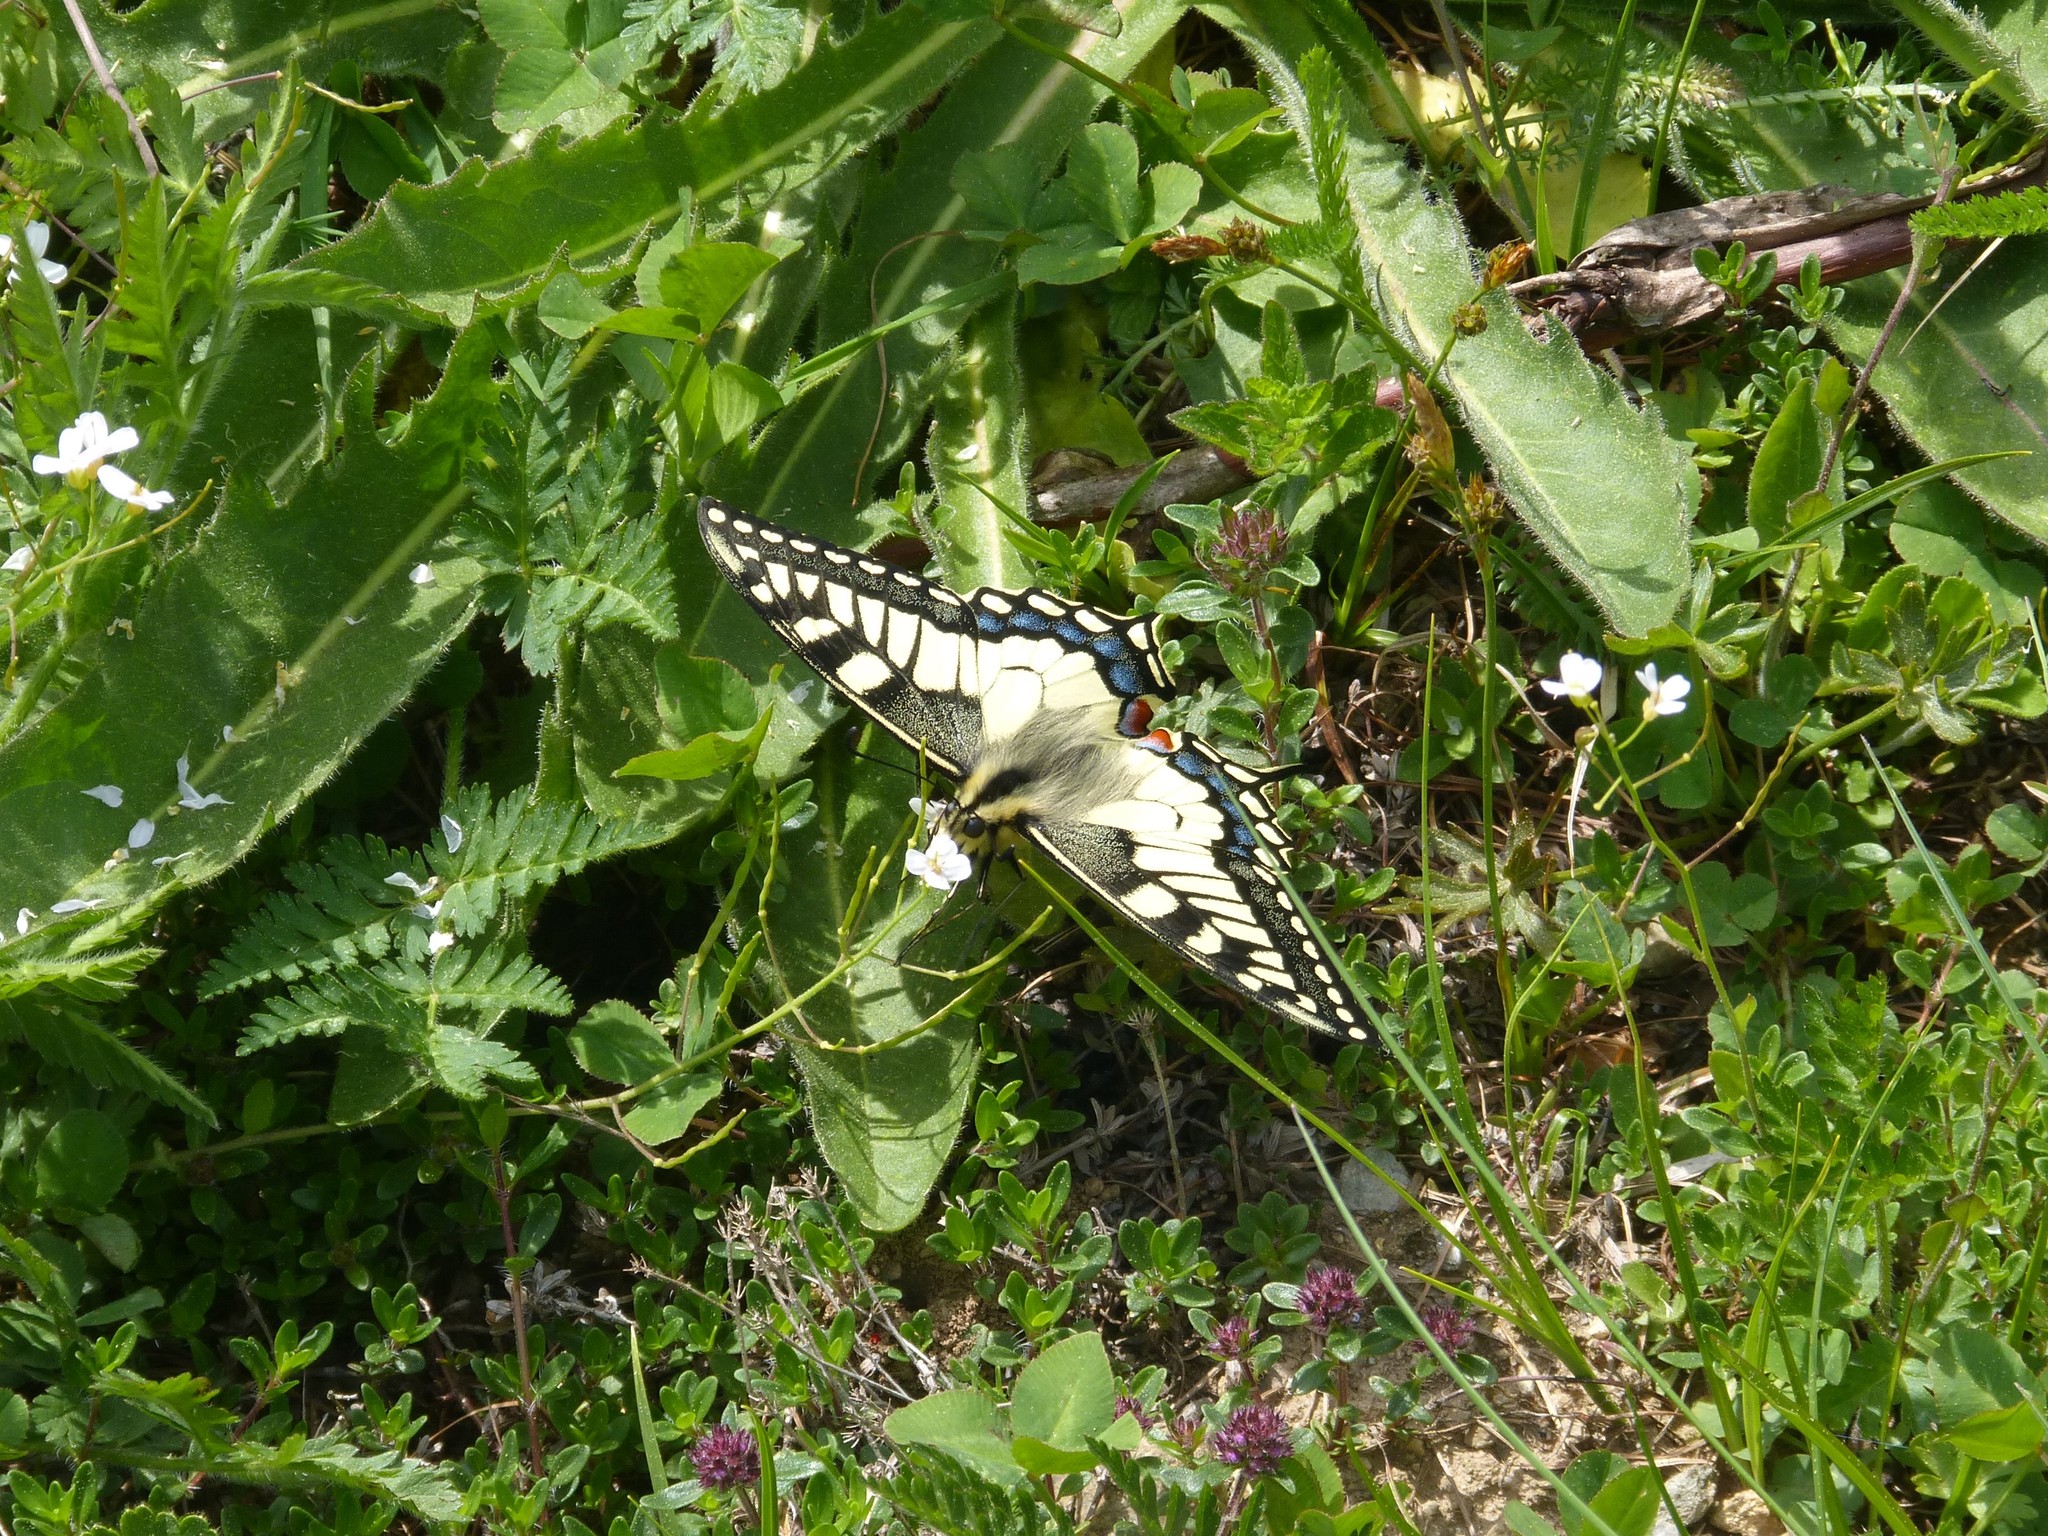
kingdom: Animalia
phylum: Arthropoda
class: Insecta
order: Lepidoptera
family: Papilionidae
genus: Papilio
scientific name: Papilio machaon
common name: Swallowtail
